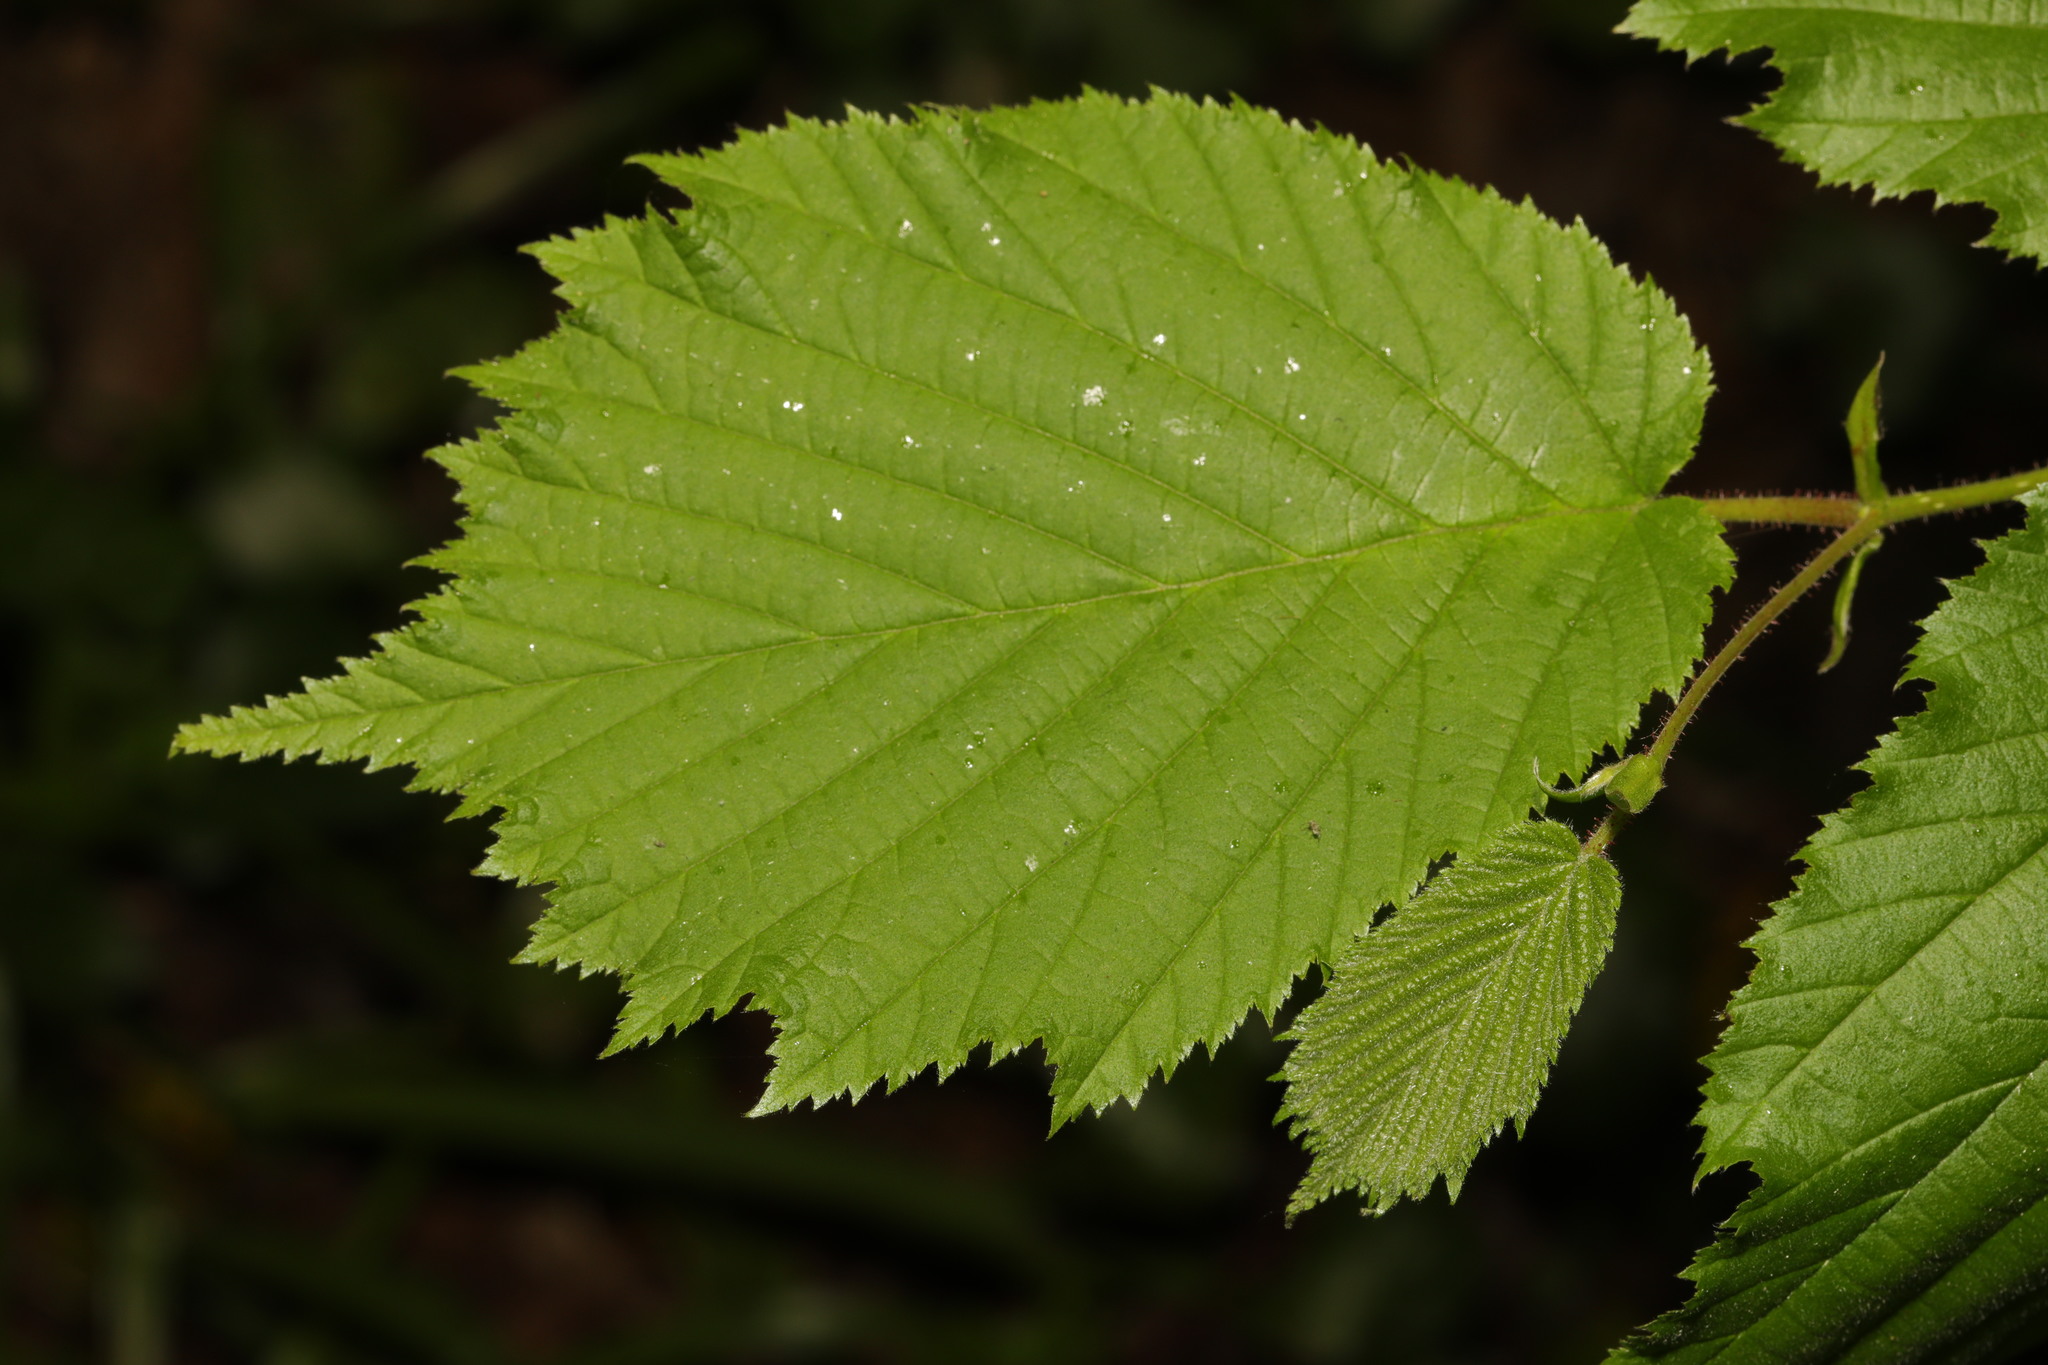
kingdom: Plantae
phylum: Tracheophyta
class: Magnoliopsida
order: Fagales
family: Betulaceae
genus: Corylus
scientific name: Corylus avellana
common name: European hazel
